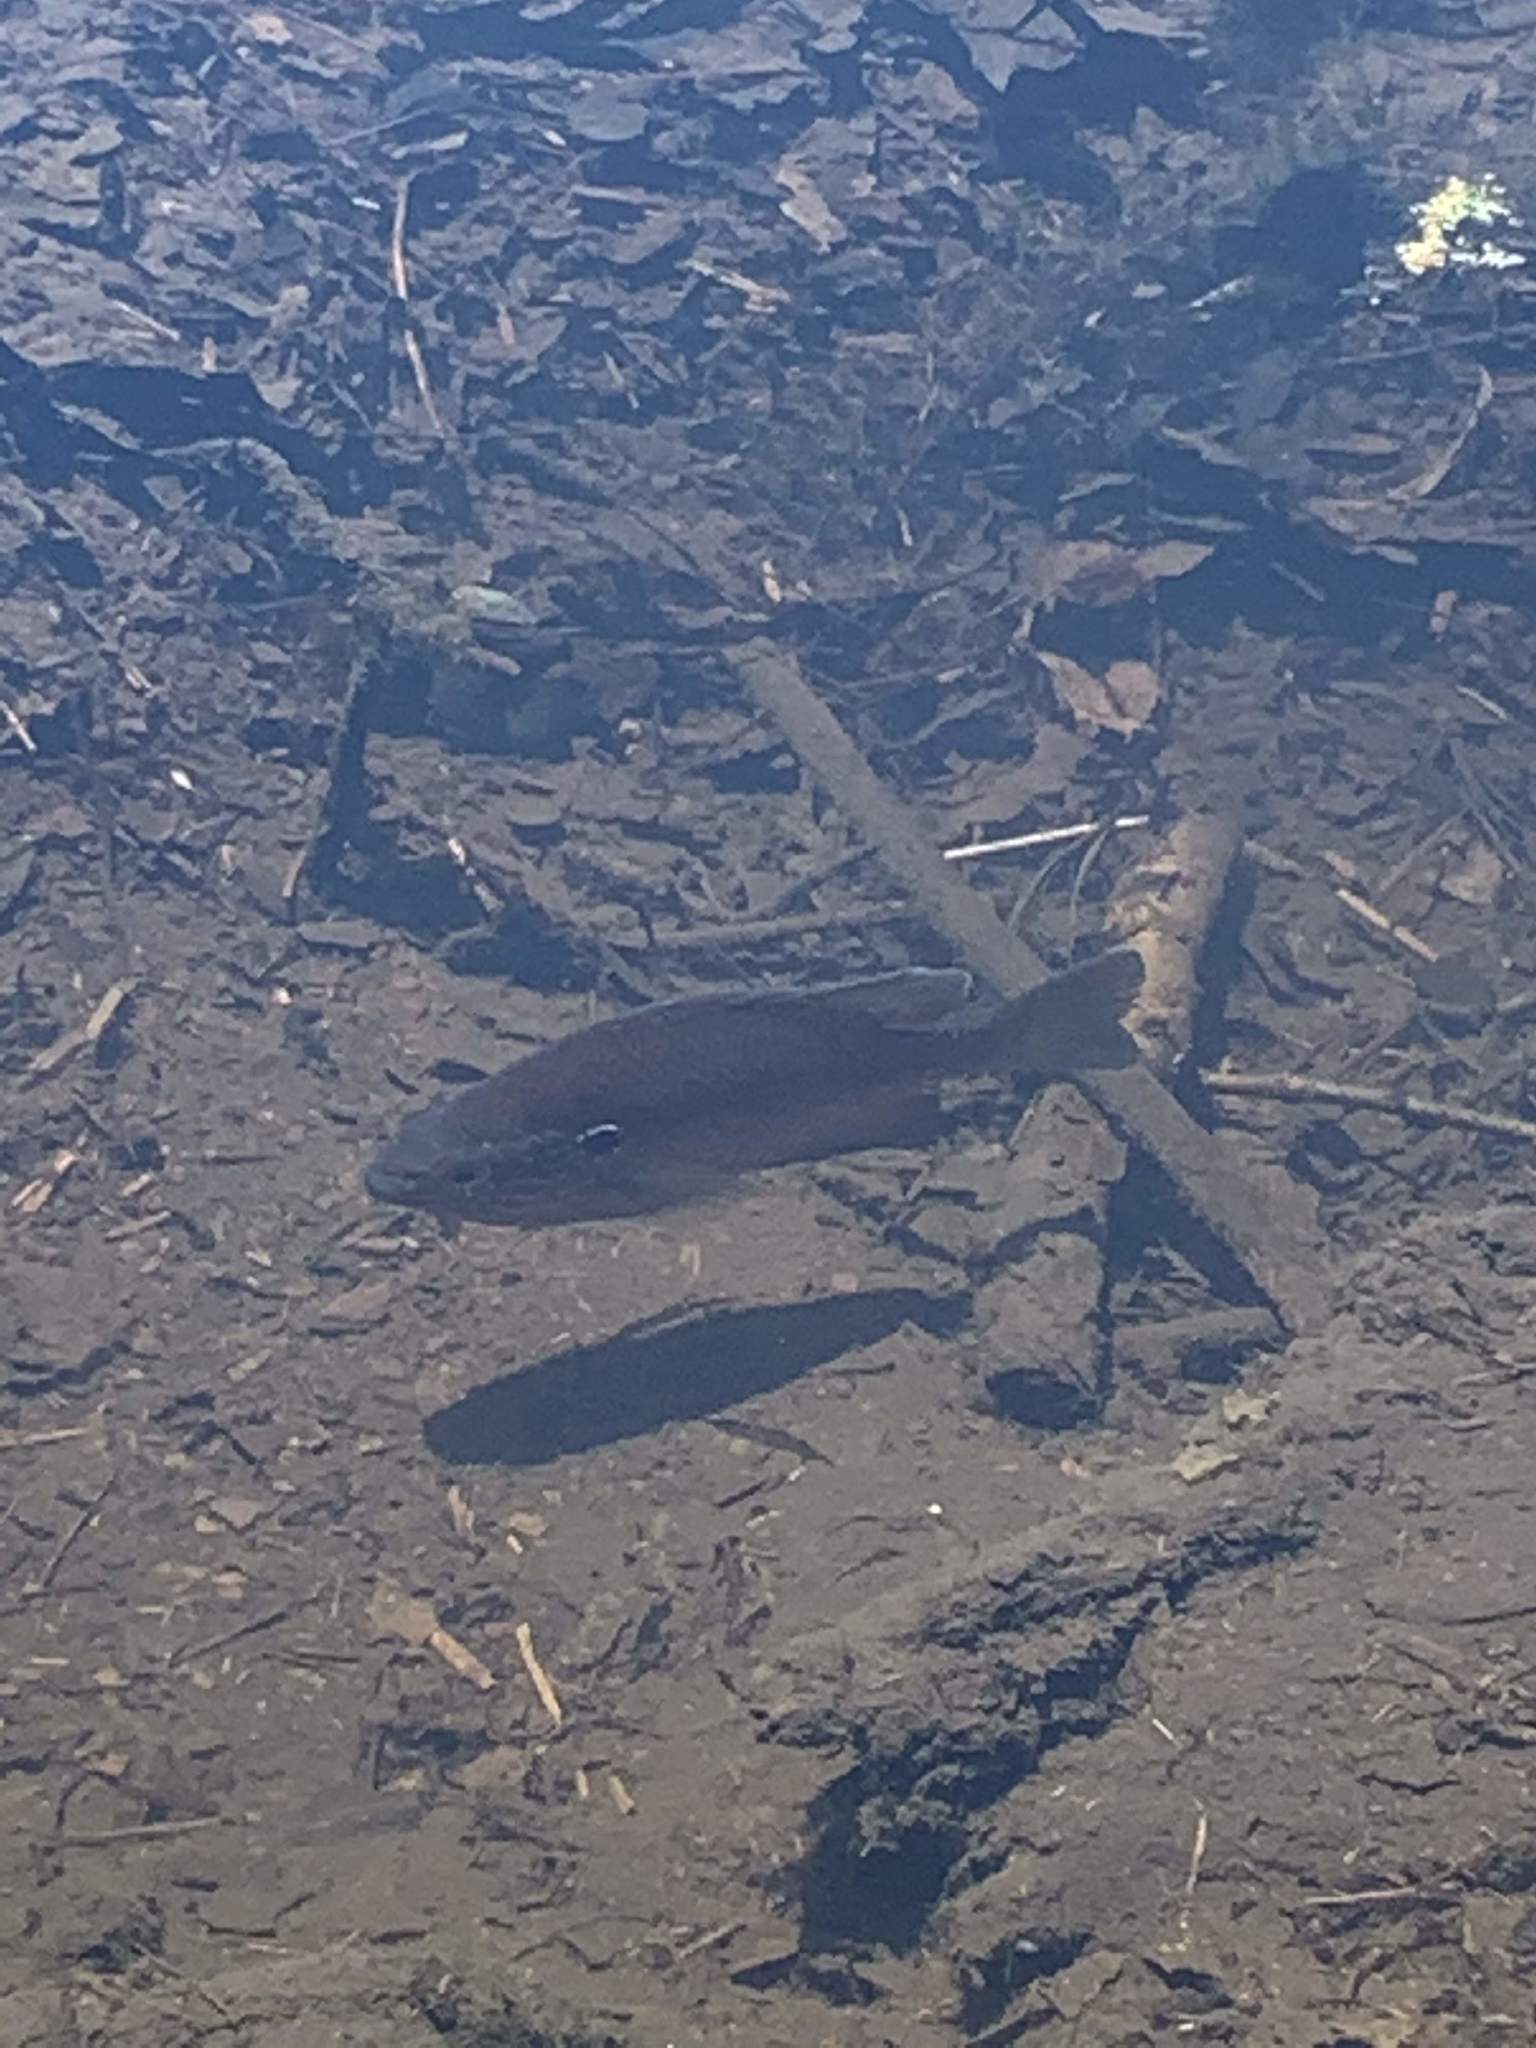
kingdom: Animalia
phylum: Chordata
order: Perciformes
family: Centrarchidae
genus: Lepomis
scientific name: Lepomis gibbosus
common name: Pumpkinseed
